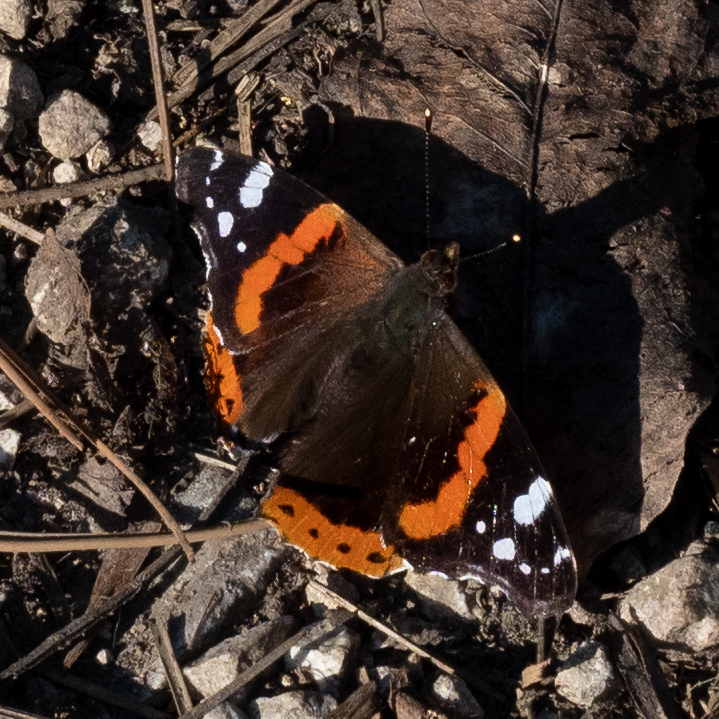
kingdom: Animalia
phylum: Arthropoda
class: Insecta
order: Lepidoptera
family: Nymphalidae
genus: Vanessa
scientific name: Vanessa atalanta
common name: Red admiral
